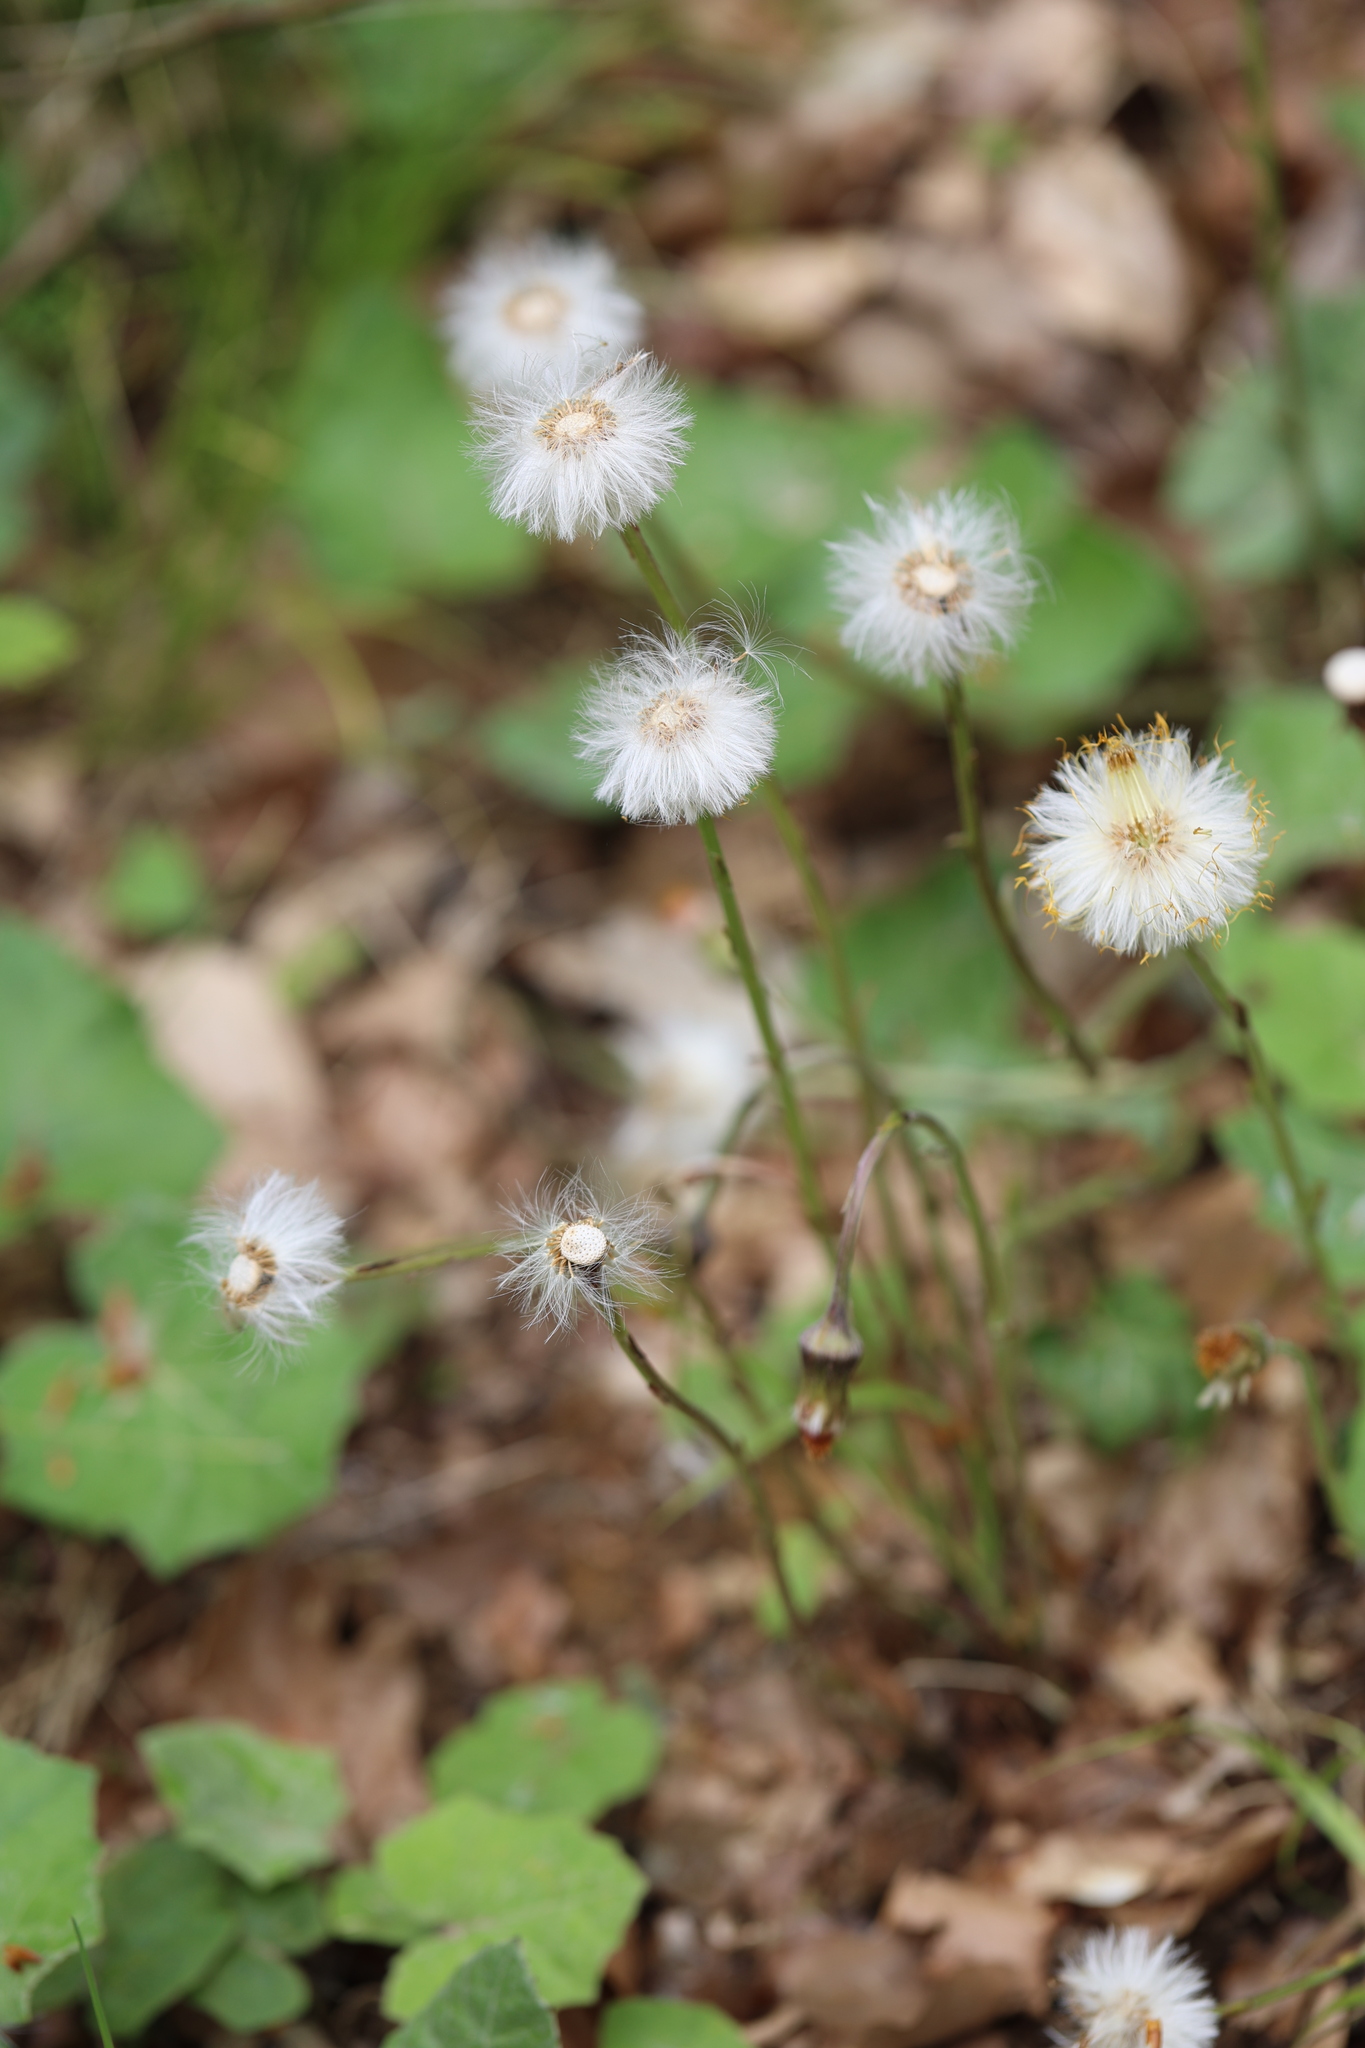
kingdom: Plantae
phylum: Tracheophyta
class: Magnoliopsida
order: Asterales
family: Asteraceae
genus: Tussilago
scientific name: Tussilago farfara
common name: Coltsfoot
